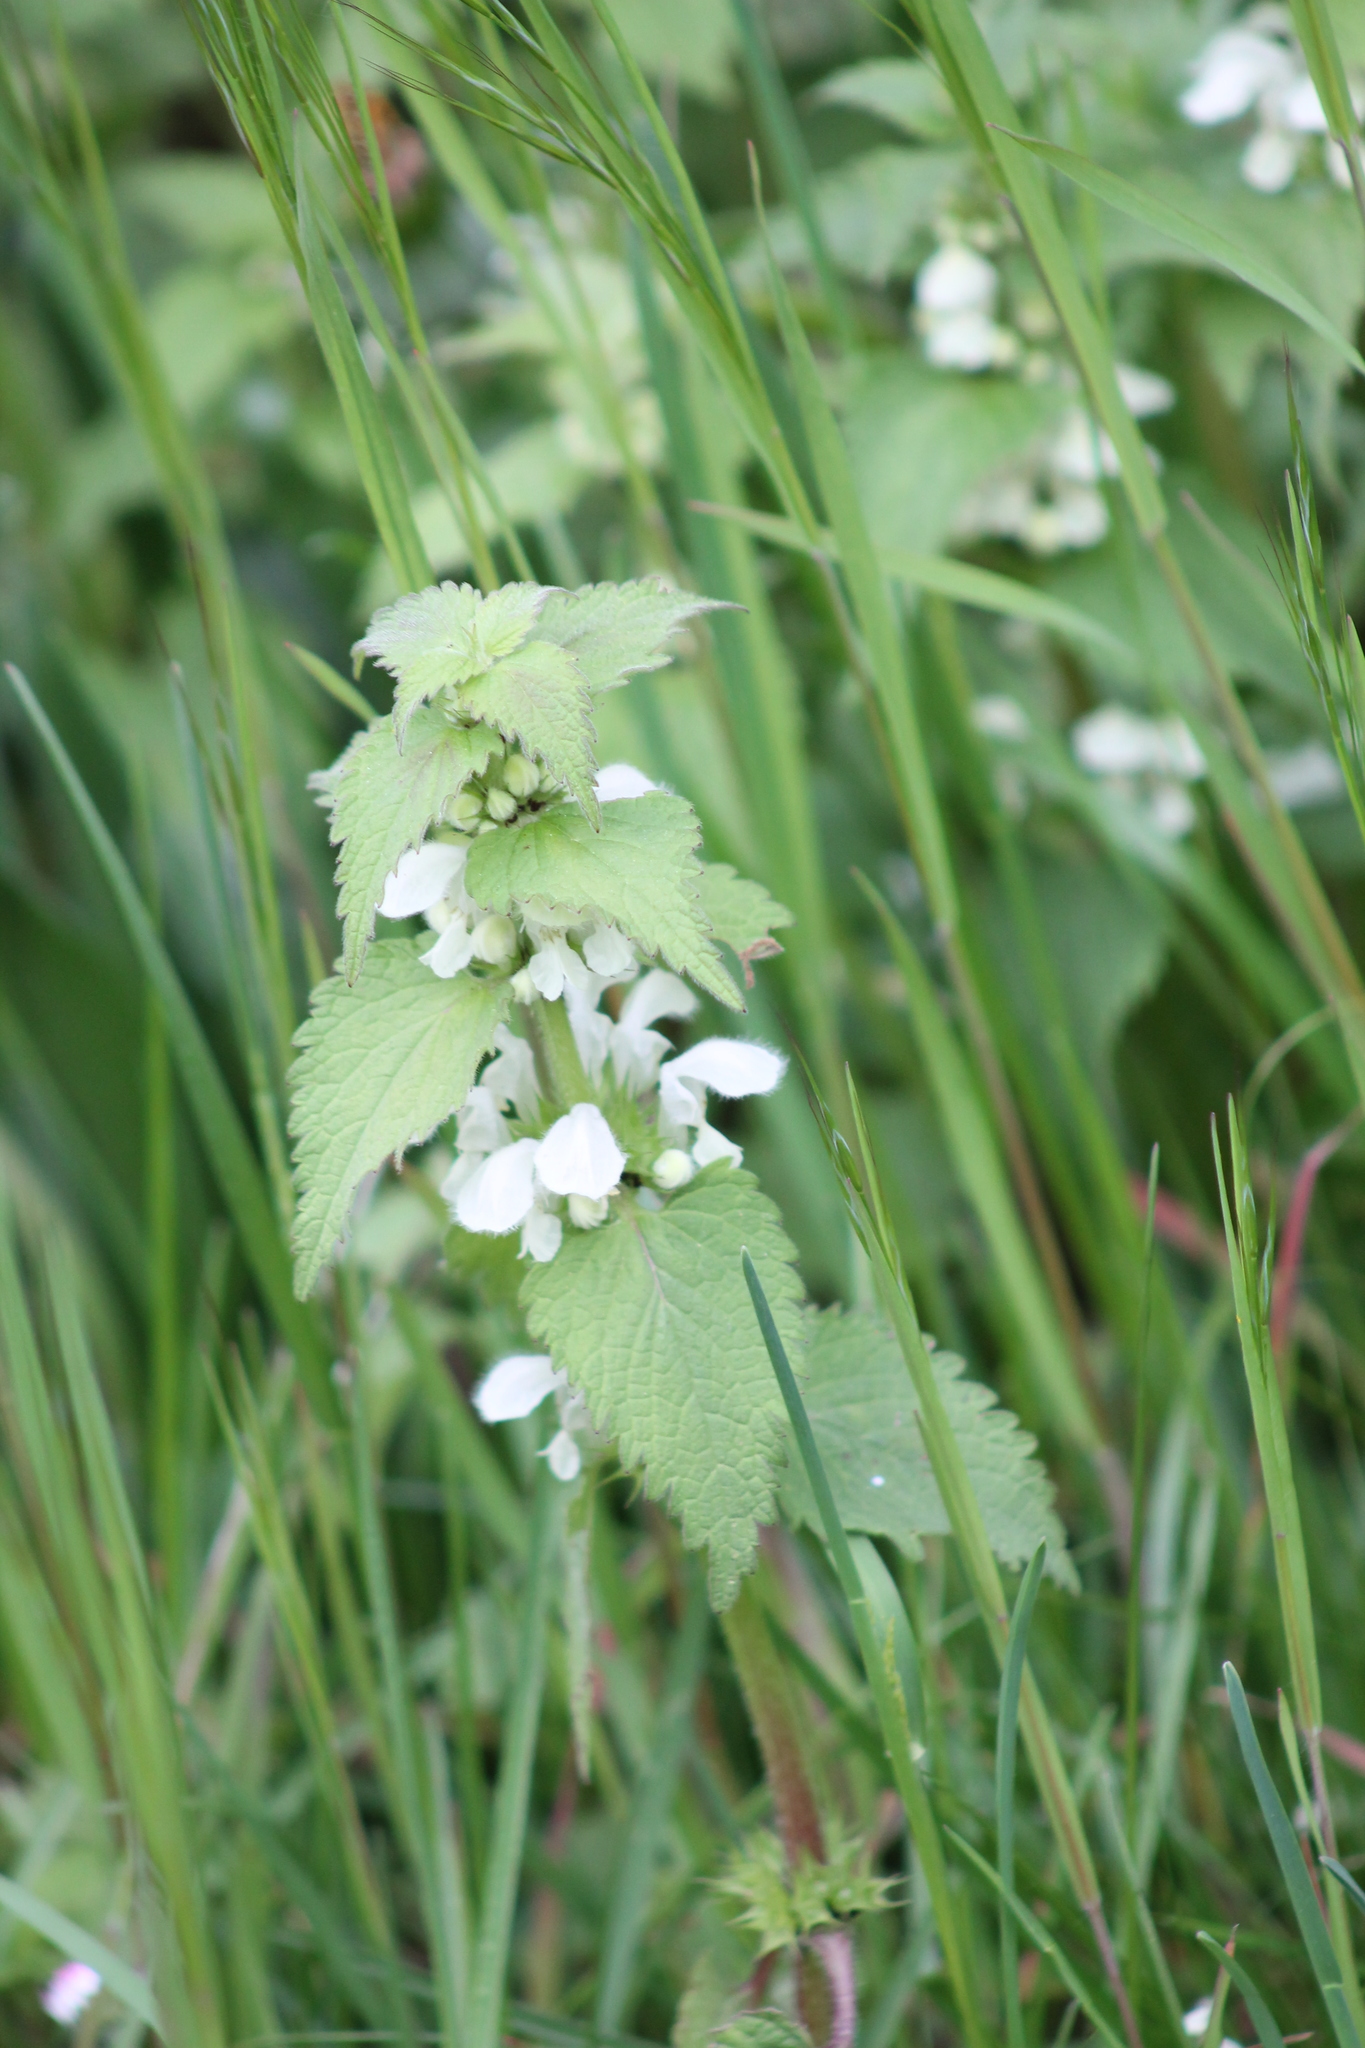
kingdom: Plantae
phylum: Tracheophyta
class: Magnoliopsida
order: Lamiales
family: Lamiaceae
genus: Lamium
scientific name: Lamium album
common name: White dead-nettle
